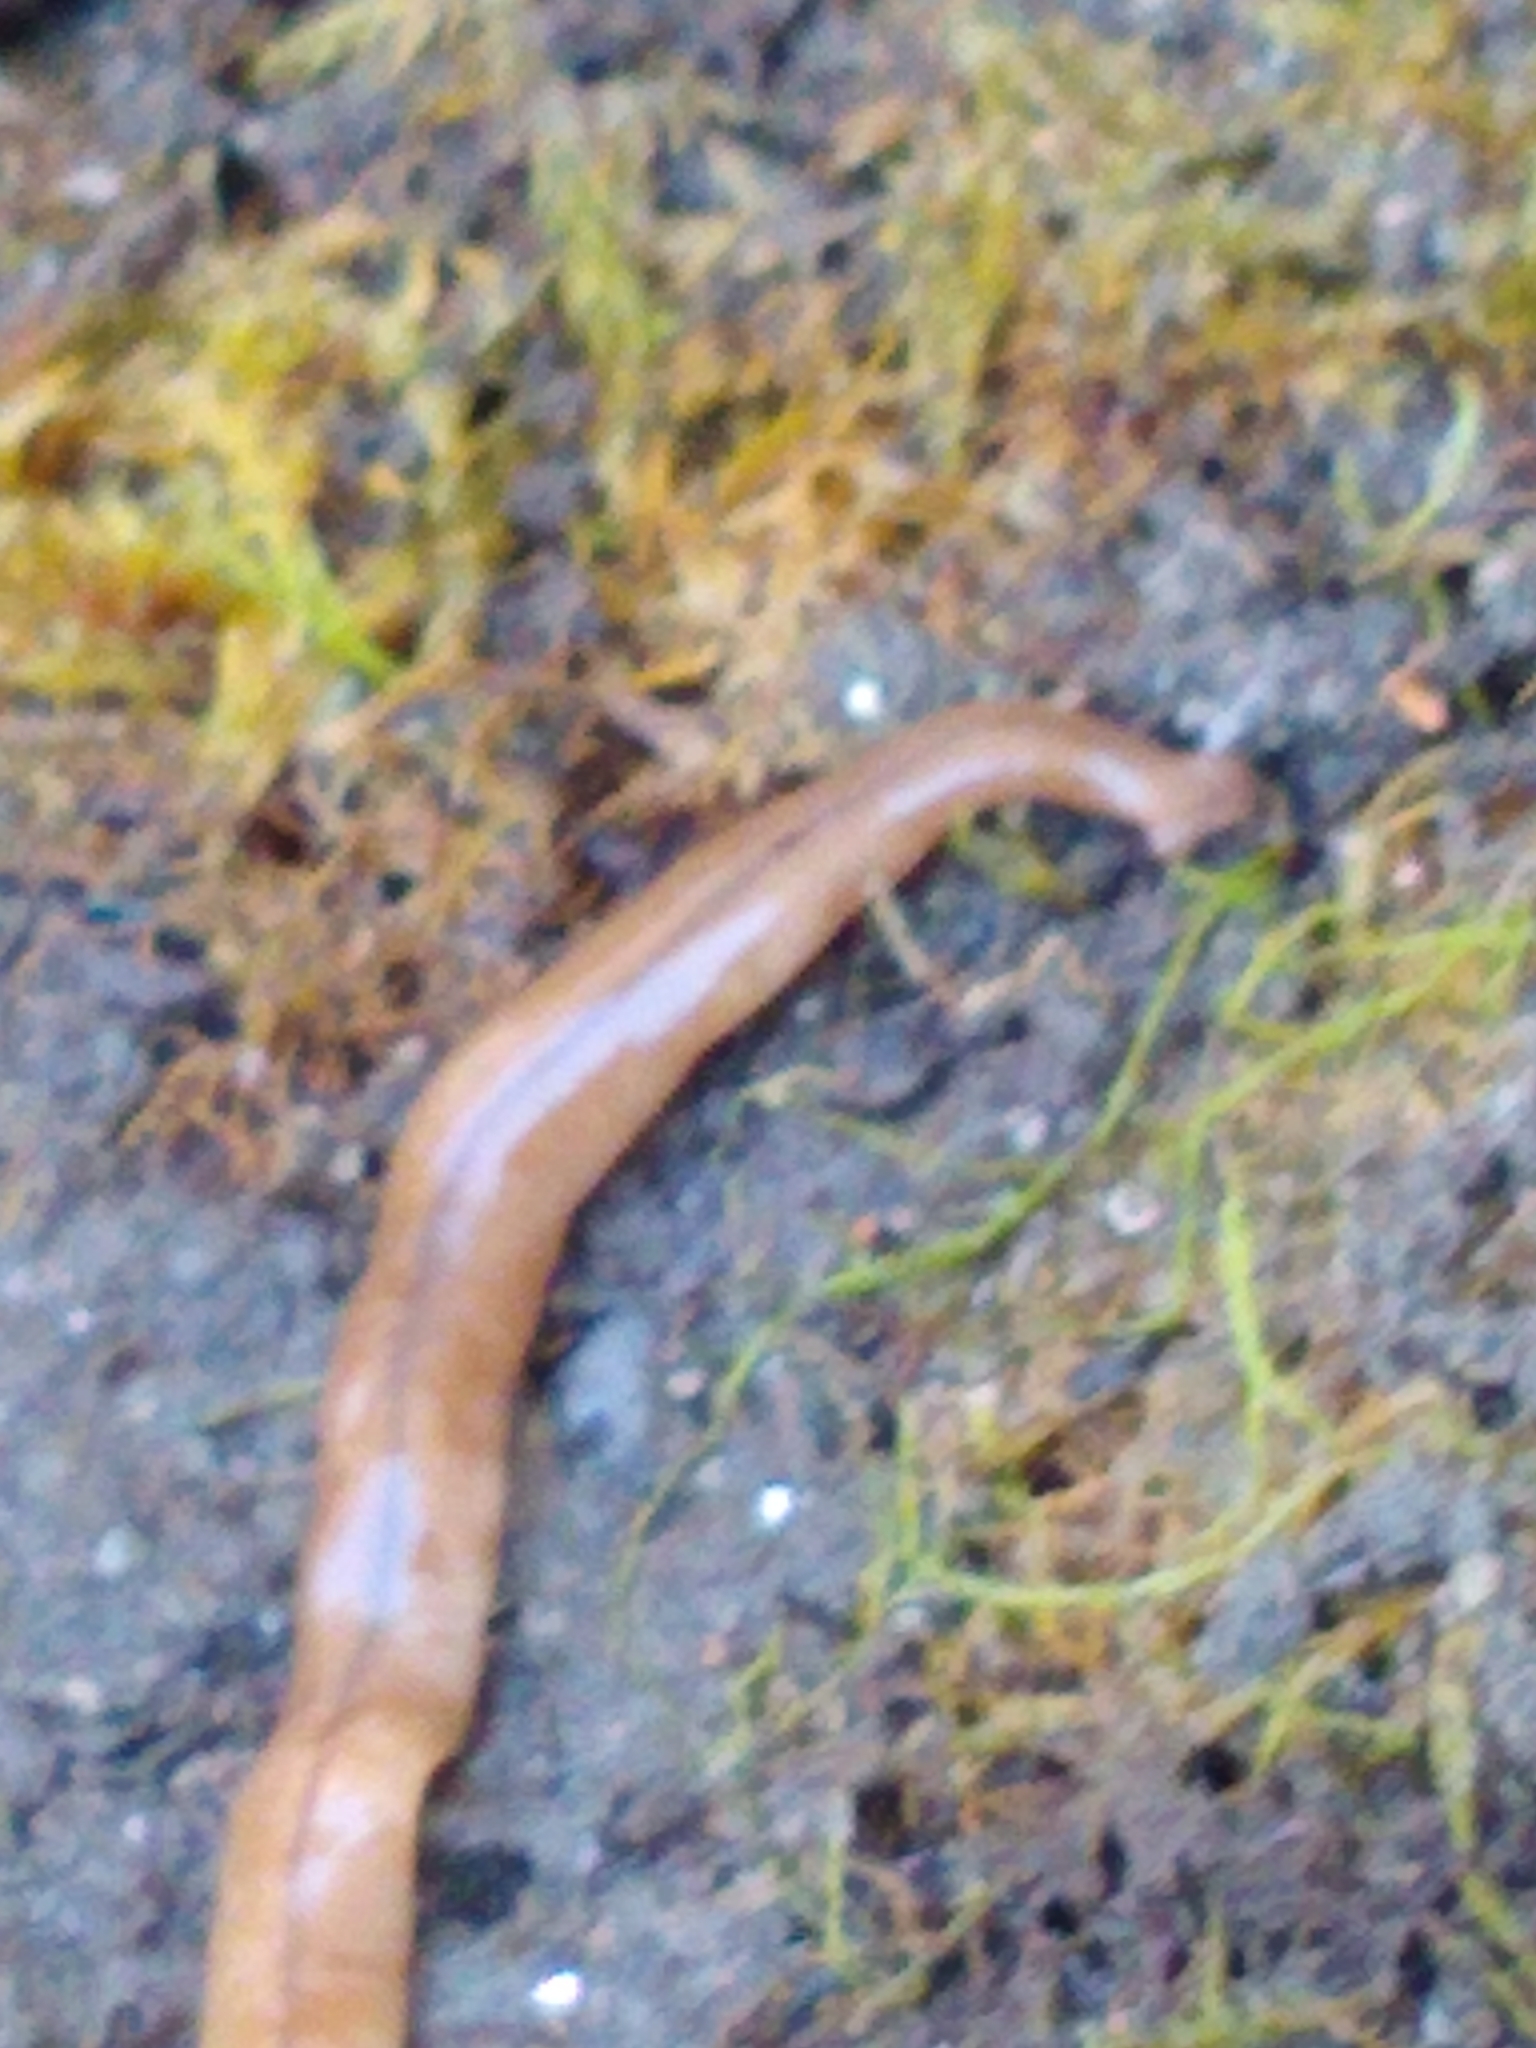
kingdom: Animalia
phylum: Platyhelminthes
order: Tricladida
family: Geoplanidae
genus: Bipalium
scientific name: Bipalium adventitium
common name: Land planarian
